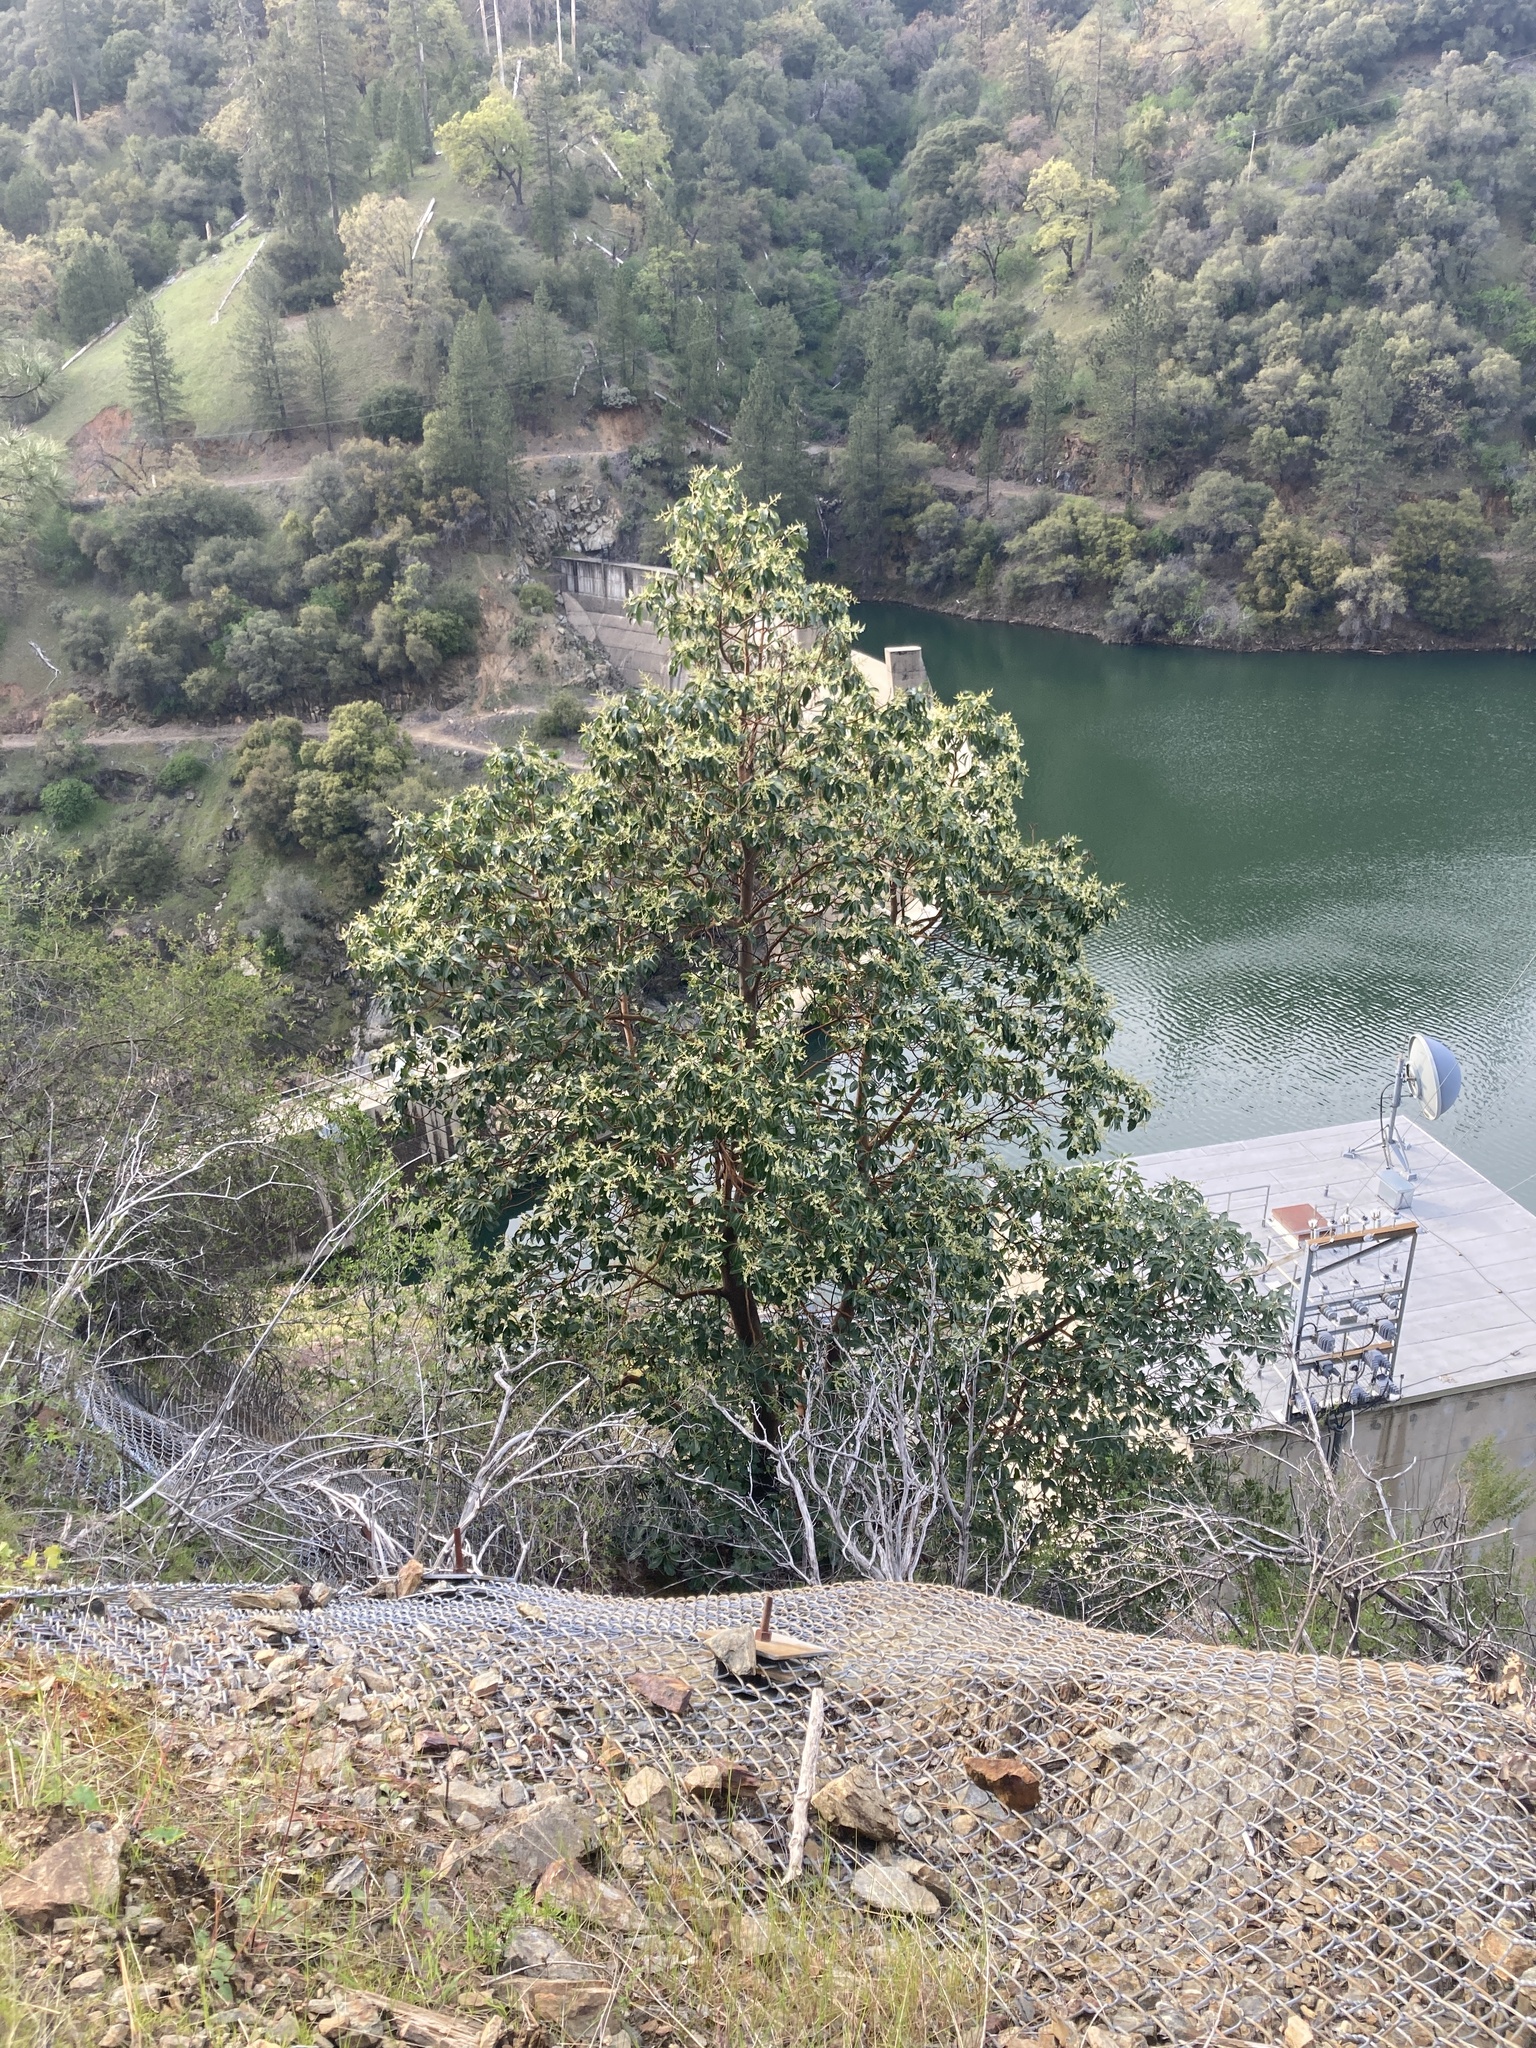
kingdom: Plantae
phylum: Tracheophyta
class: Magnoliopsida
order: Ericales
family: Ericaceae
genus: Arbutus
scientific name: Arbutus menziesii
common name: Pacific madrone
